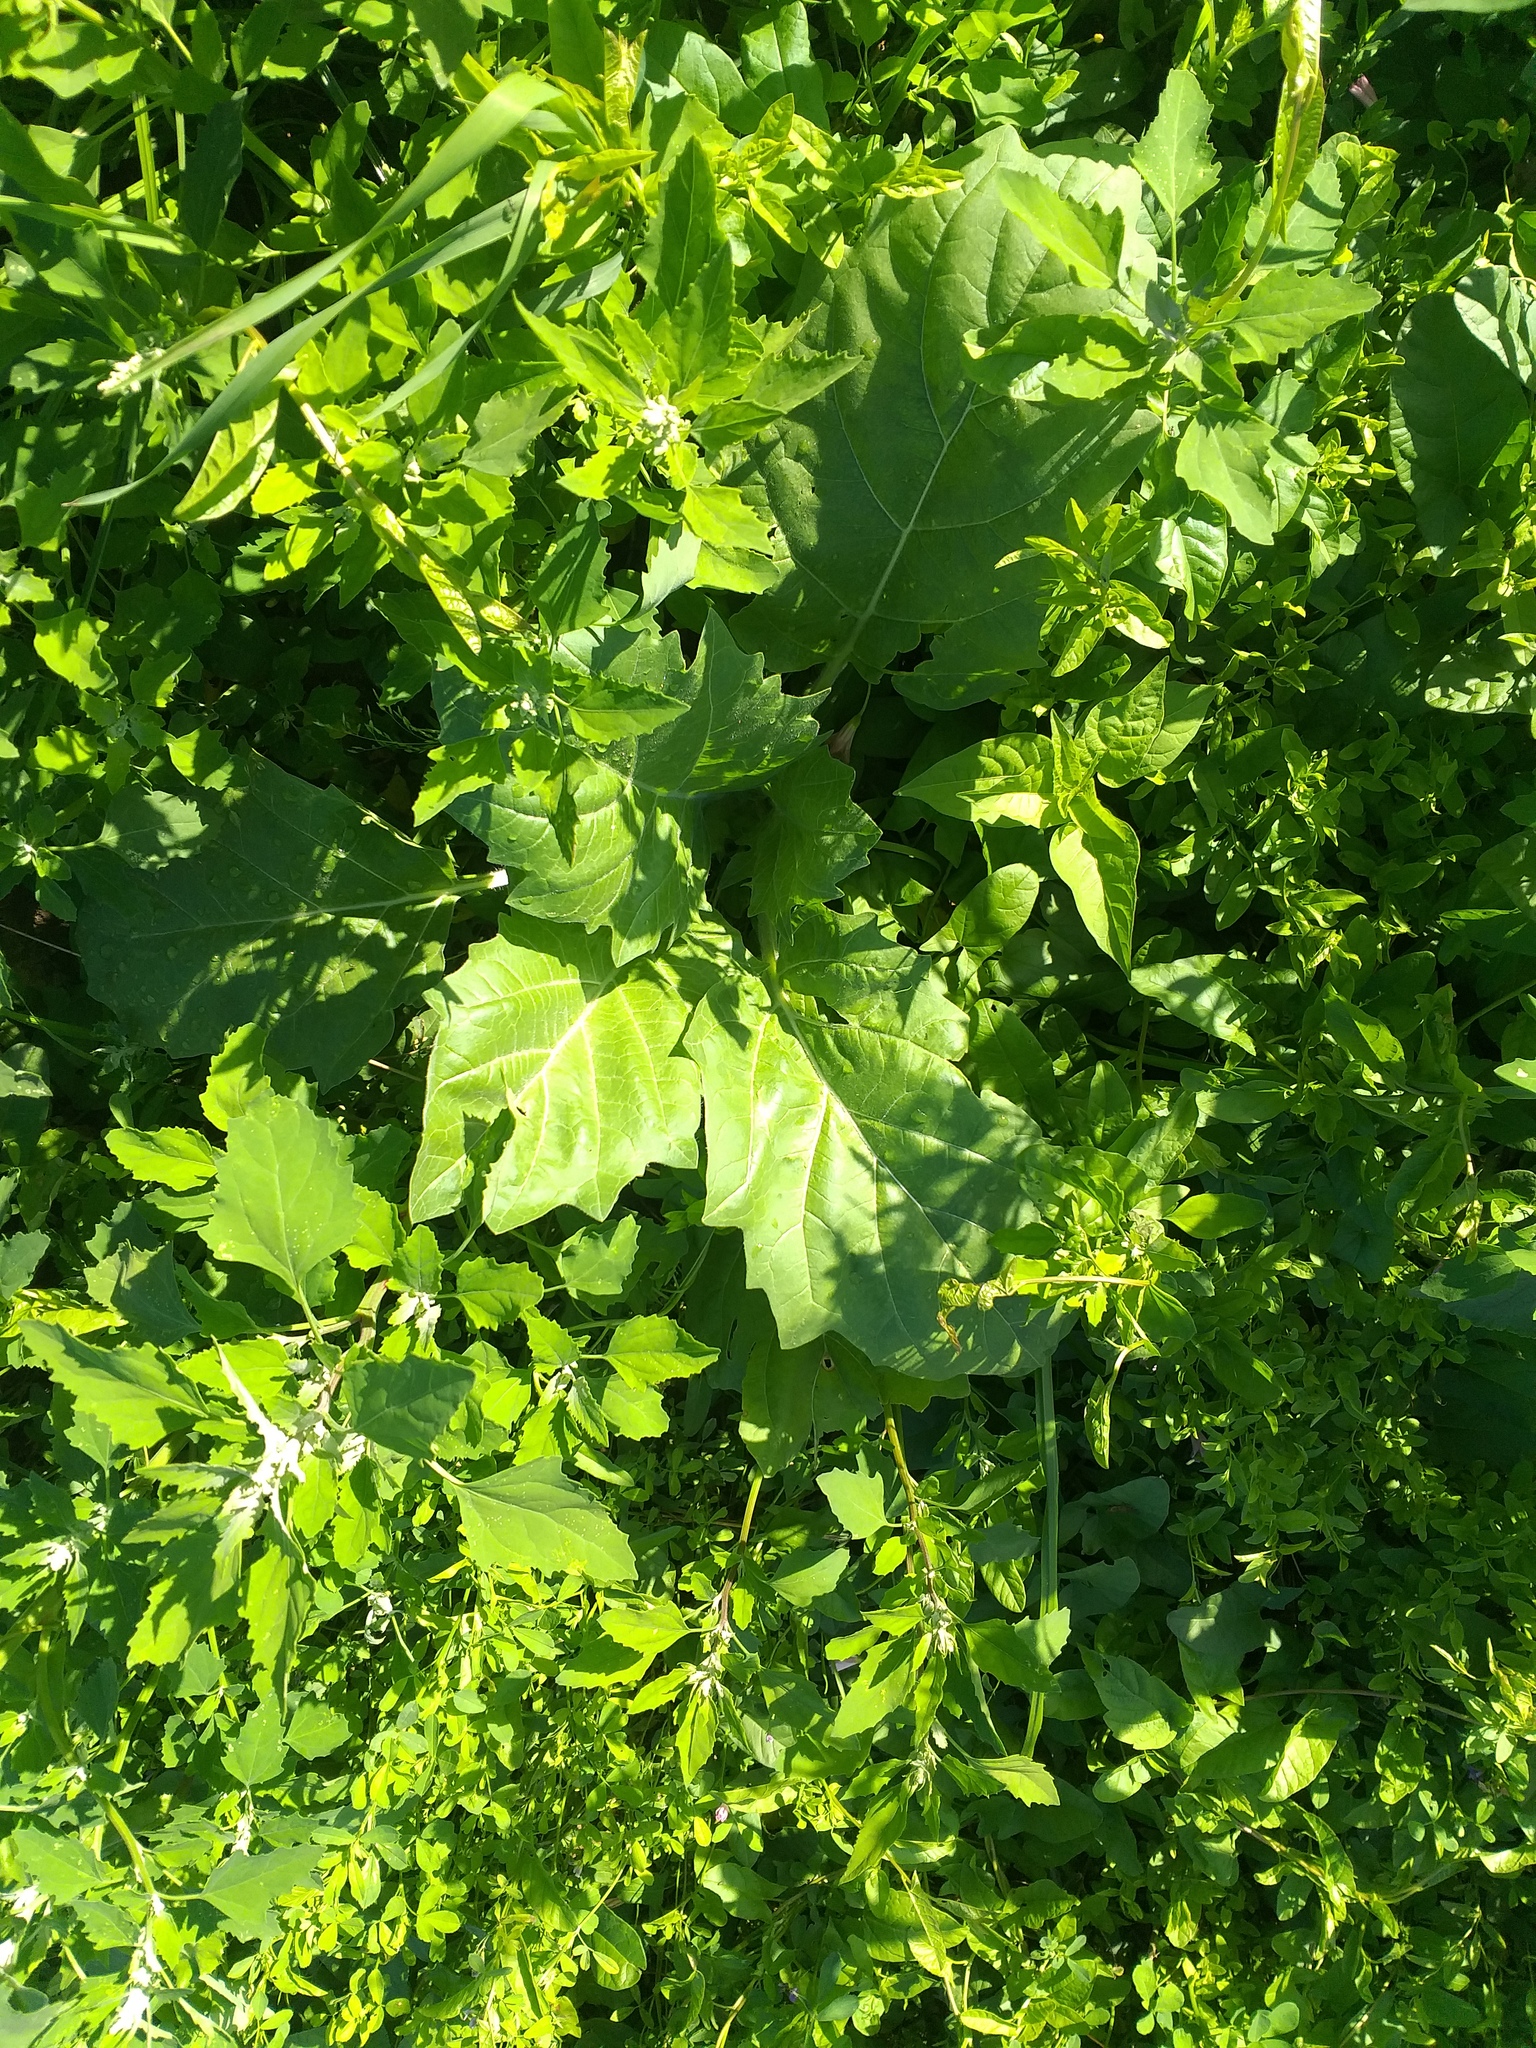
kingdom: Plantae
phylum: Tracheophyta
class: Magnoliopsida
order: Solanales
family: Solanaceae
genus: Hyoscyamus
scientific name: Hyoscyamus niger
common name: Henbane
